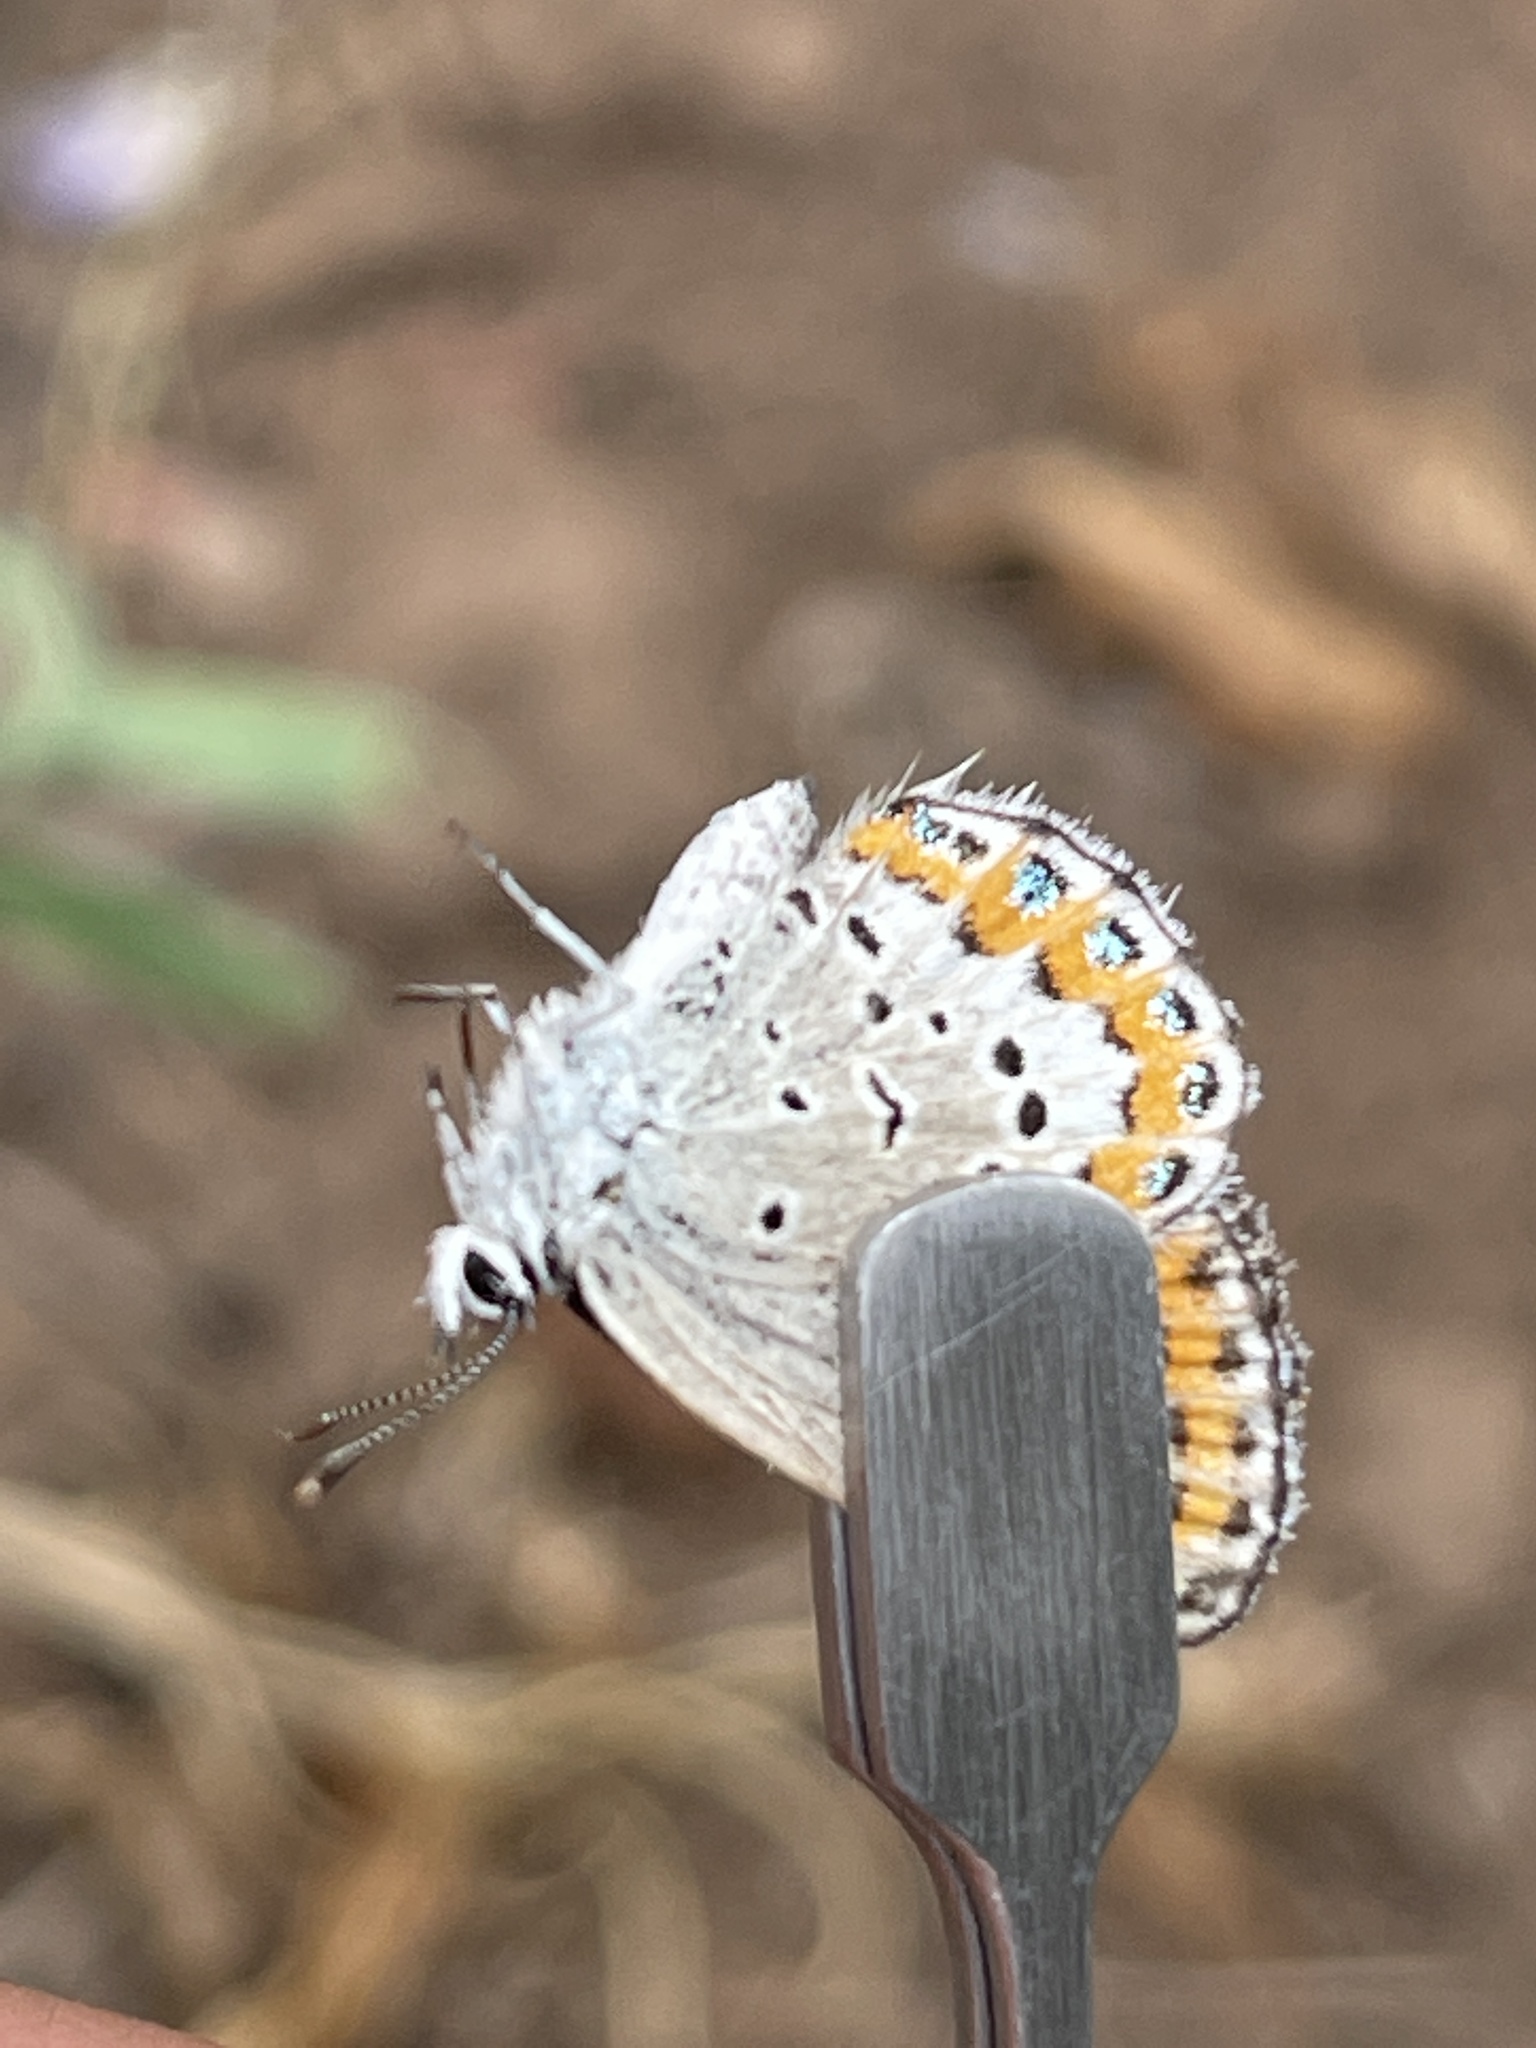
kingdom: Animalia
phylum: Arthropoda
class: Insecta
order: Lepidoptera
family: Lycaenidae
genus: Lycaeides
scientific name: Lycaeides melissa
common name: Melissa blue
